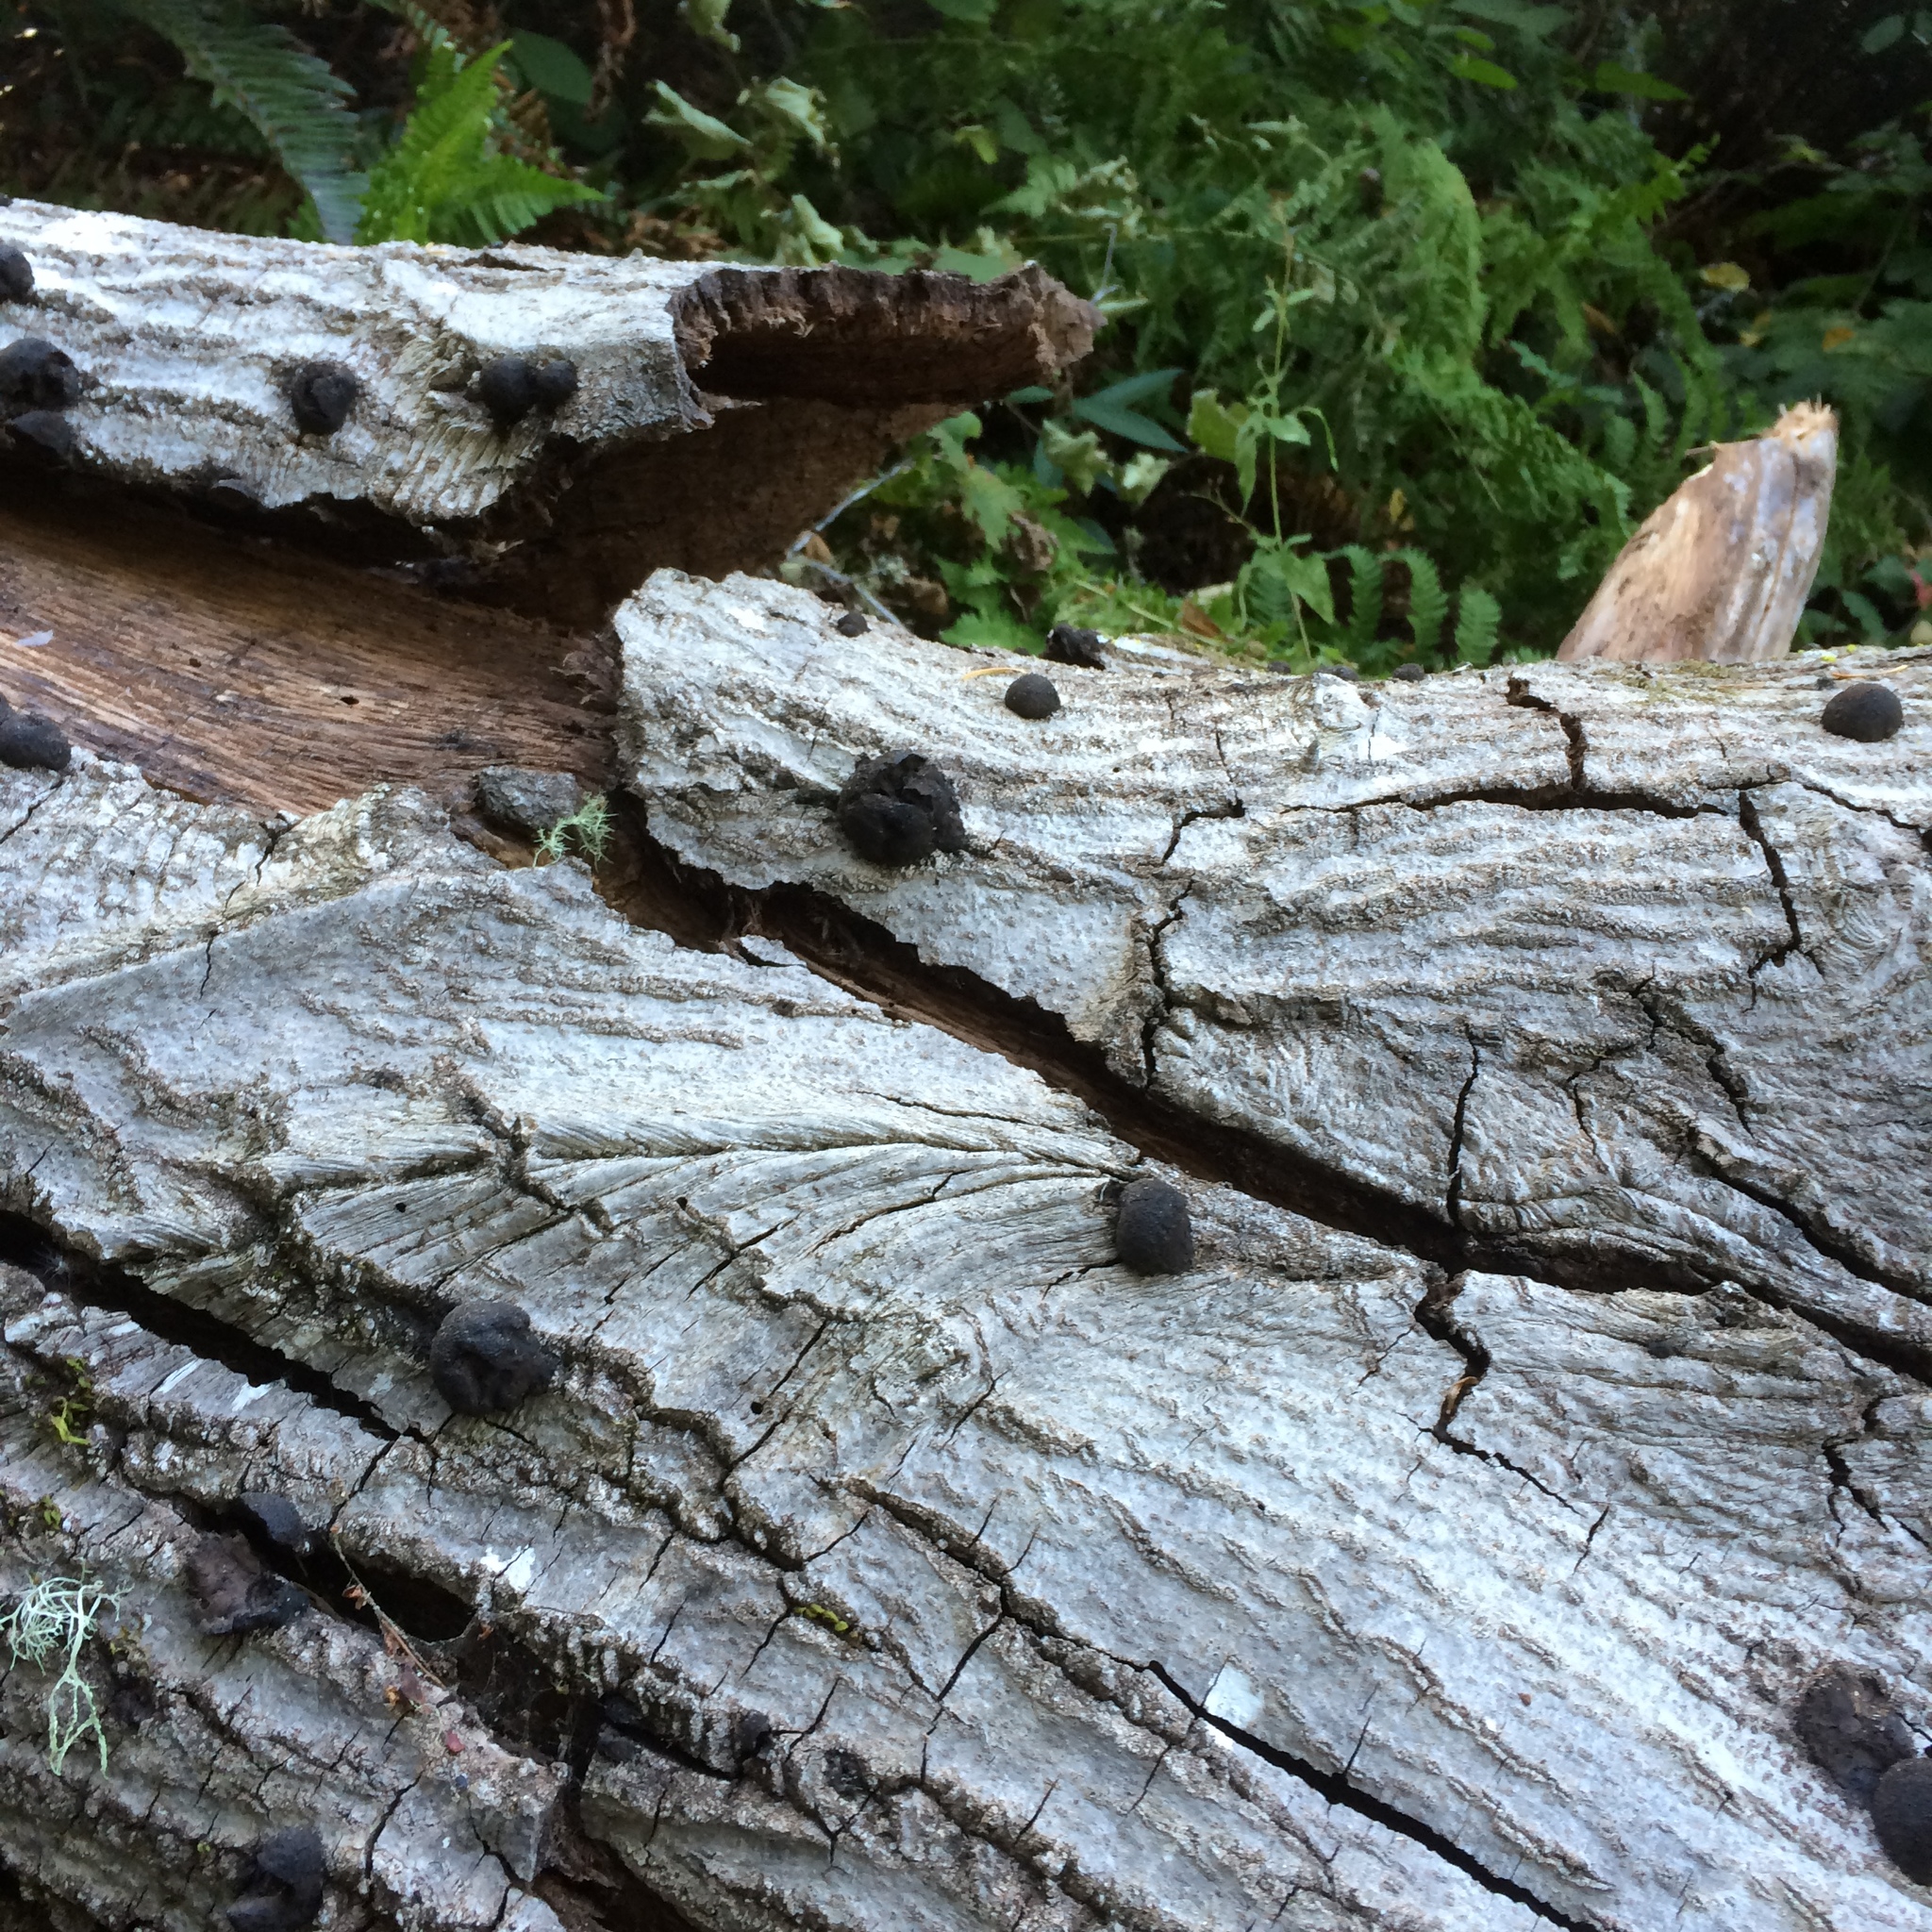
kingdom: Fungi
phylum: Ascomycota
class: Sordariomycetes
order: Xylariales
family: Hypoxylaceae
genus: Daldinia
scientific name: Daldinia grandis
